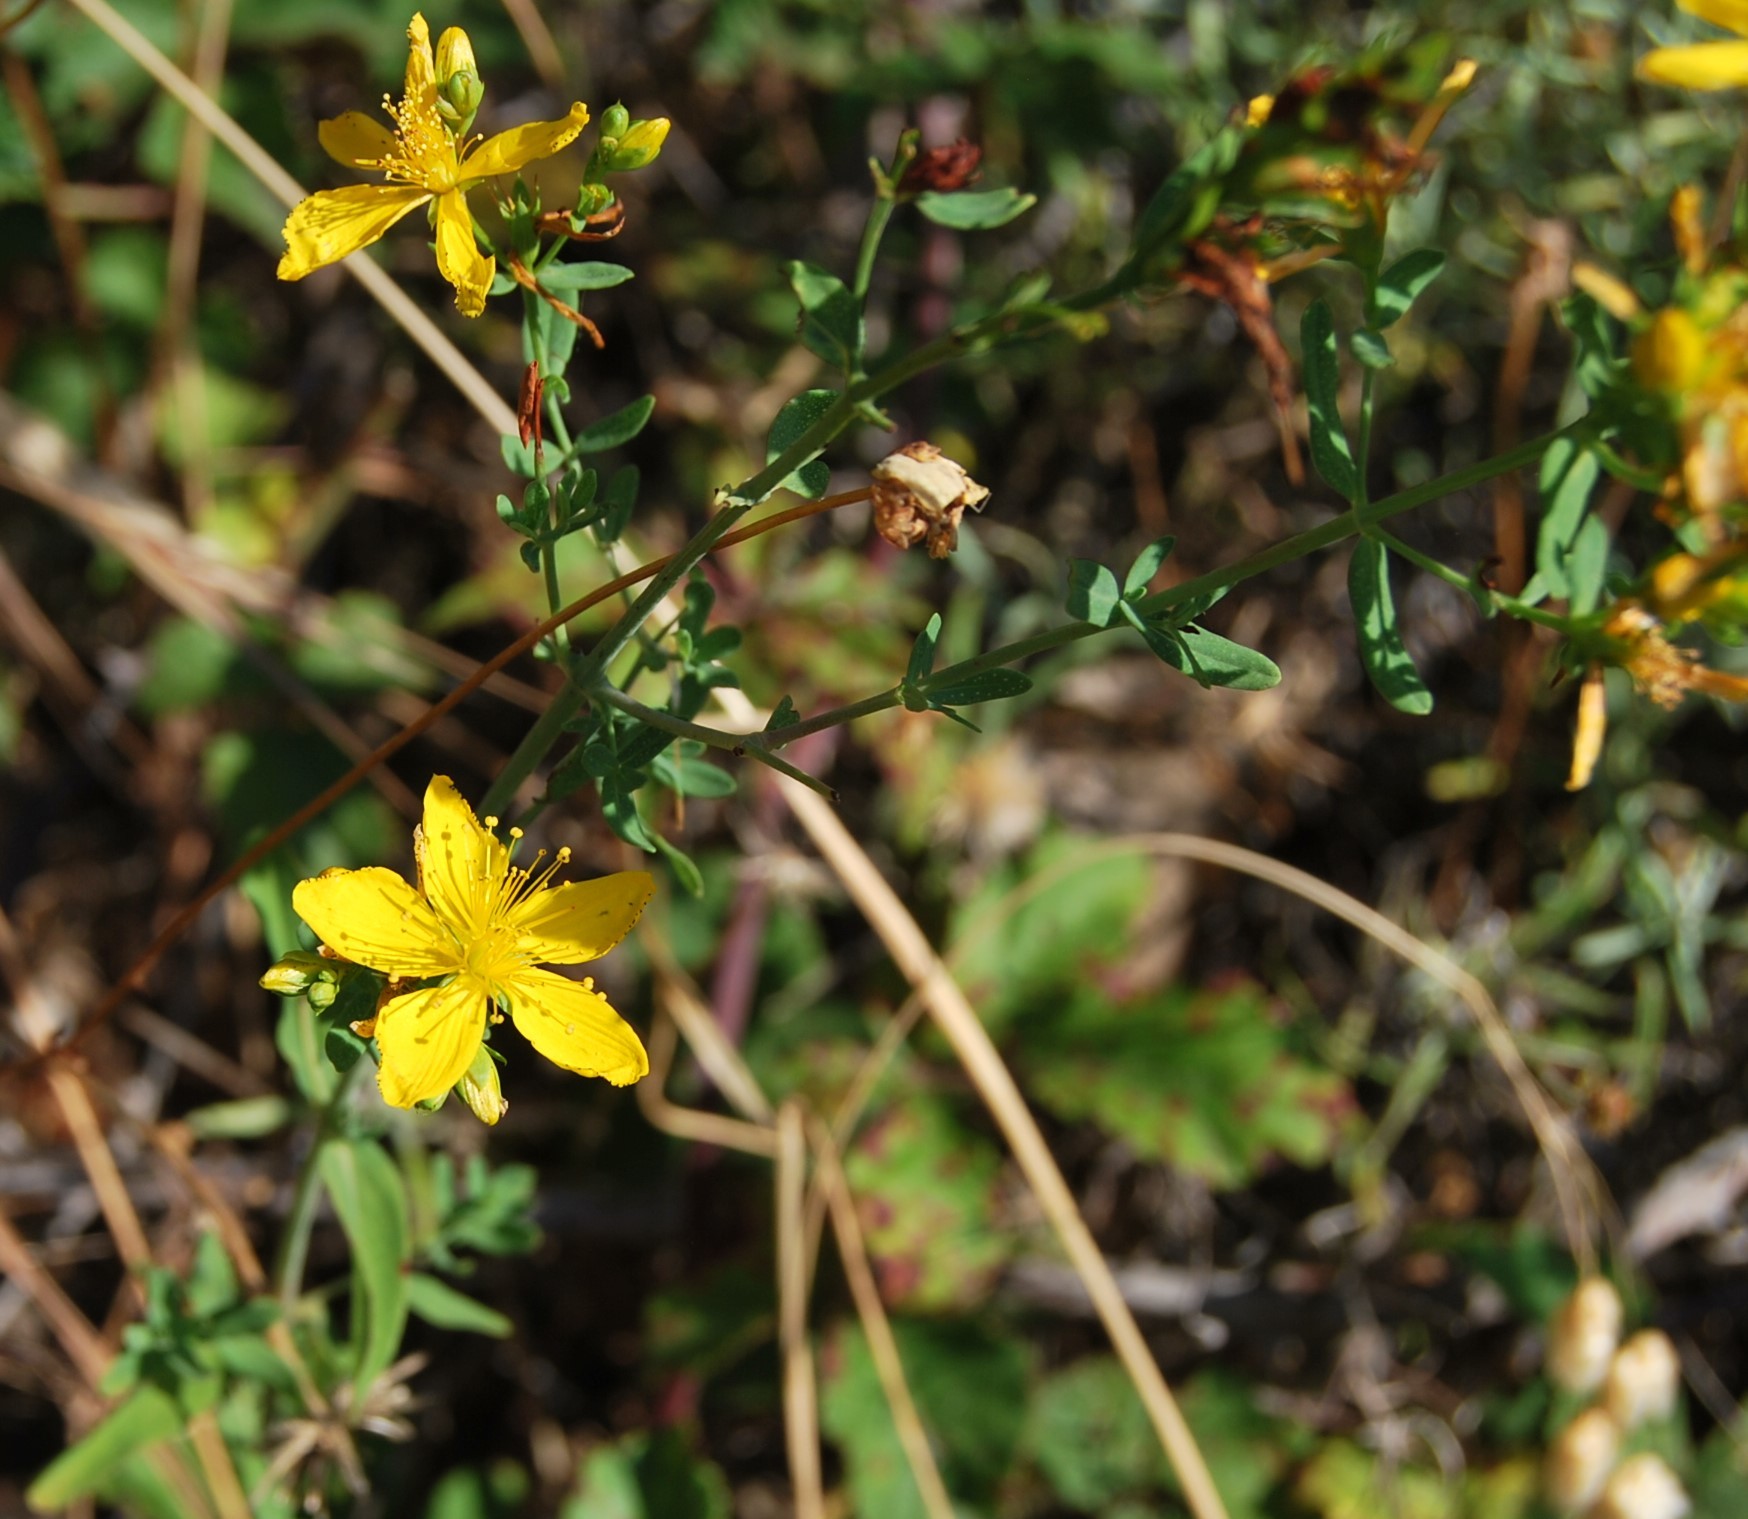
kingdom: Plantae
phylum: Tracheophyta
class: Magnoliopsida
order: Malpighiales
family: Hypericaceae
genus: Hypericum
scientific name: Hypericum perforatum
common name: Common st. johnswort
